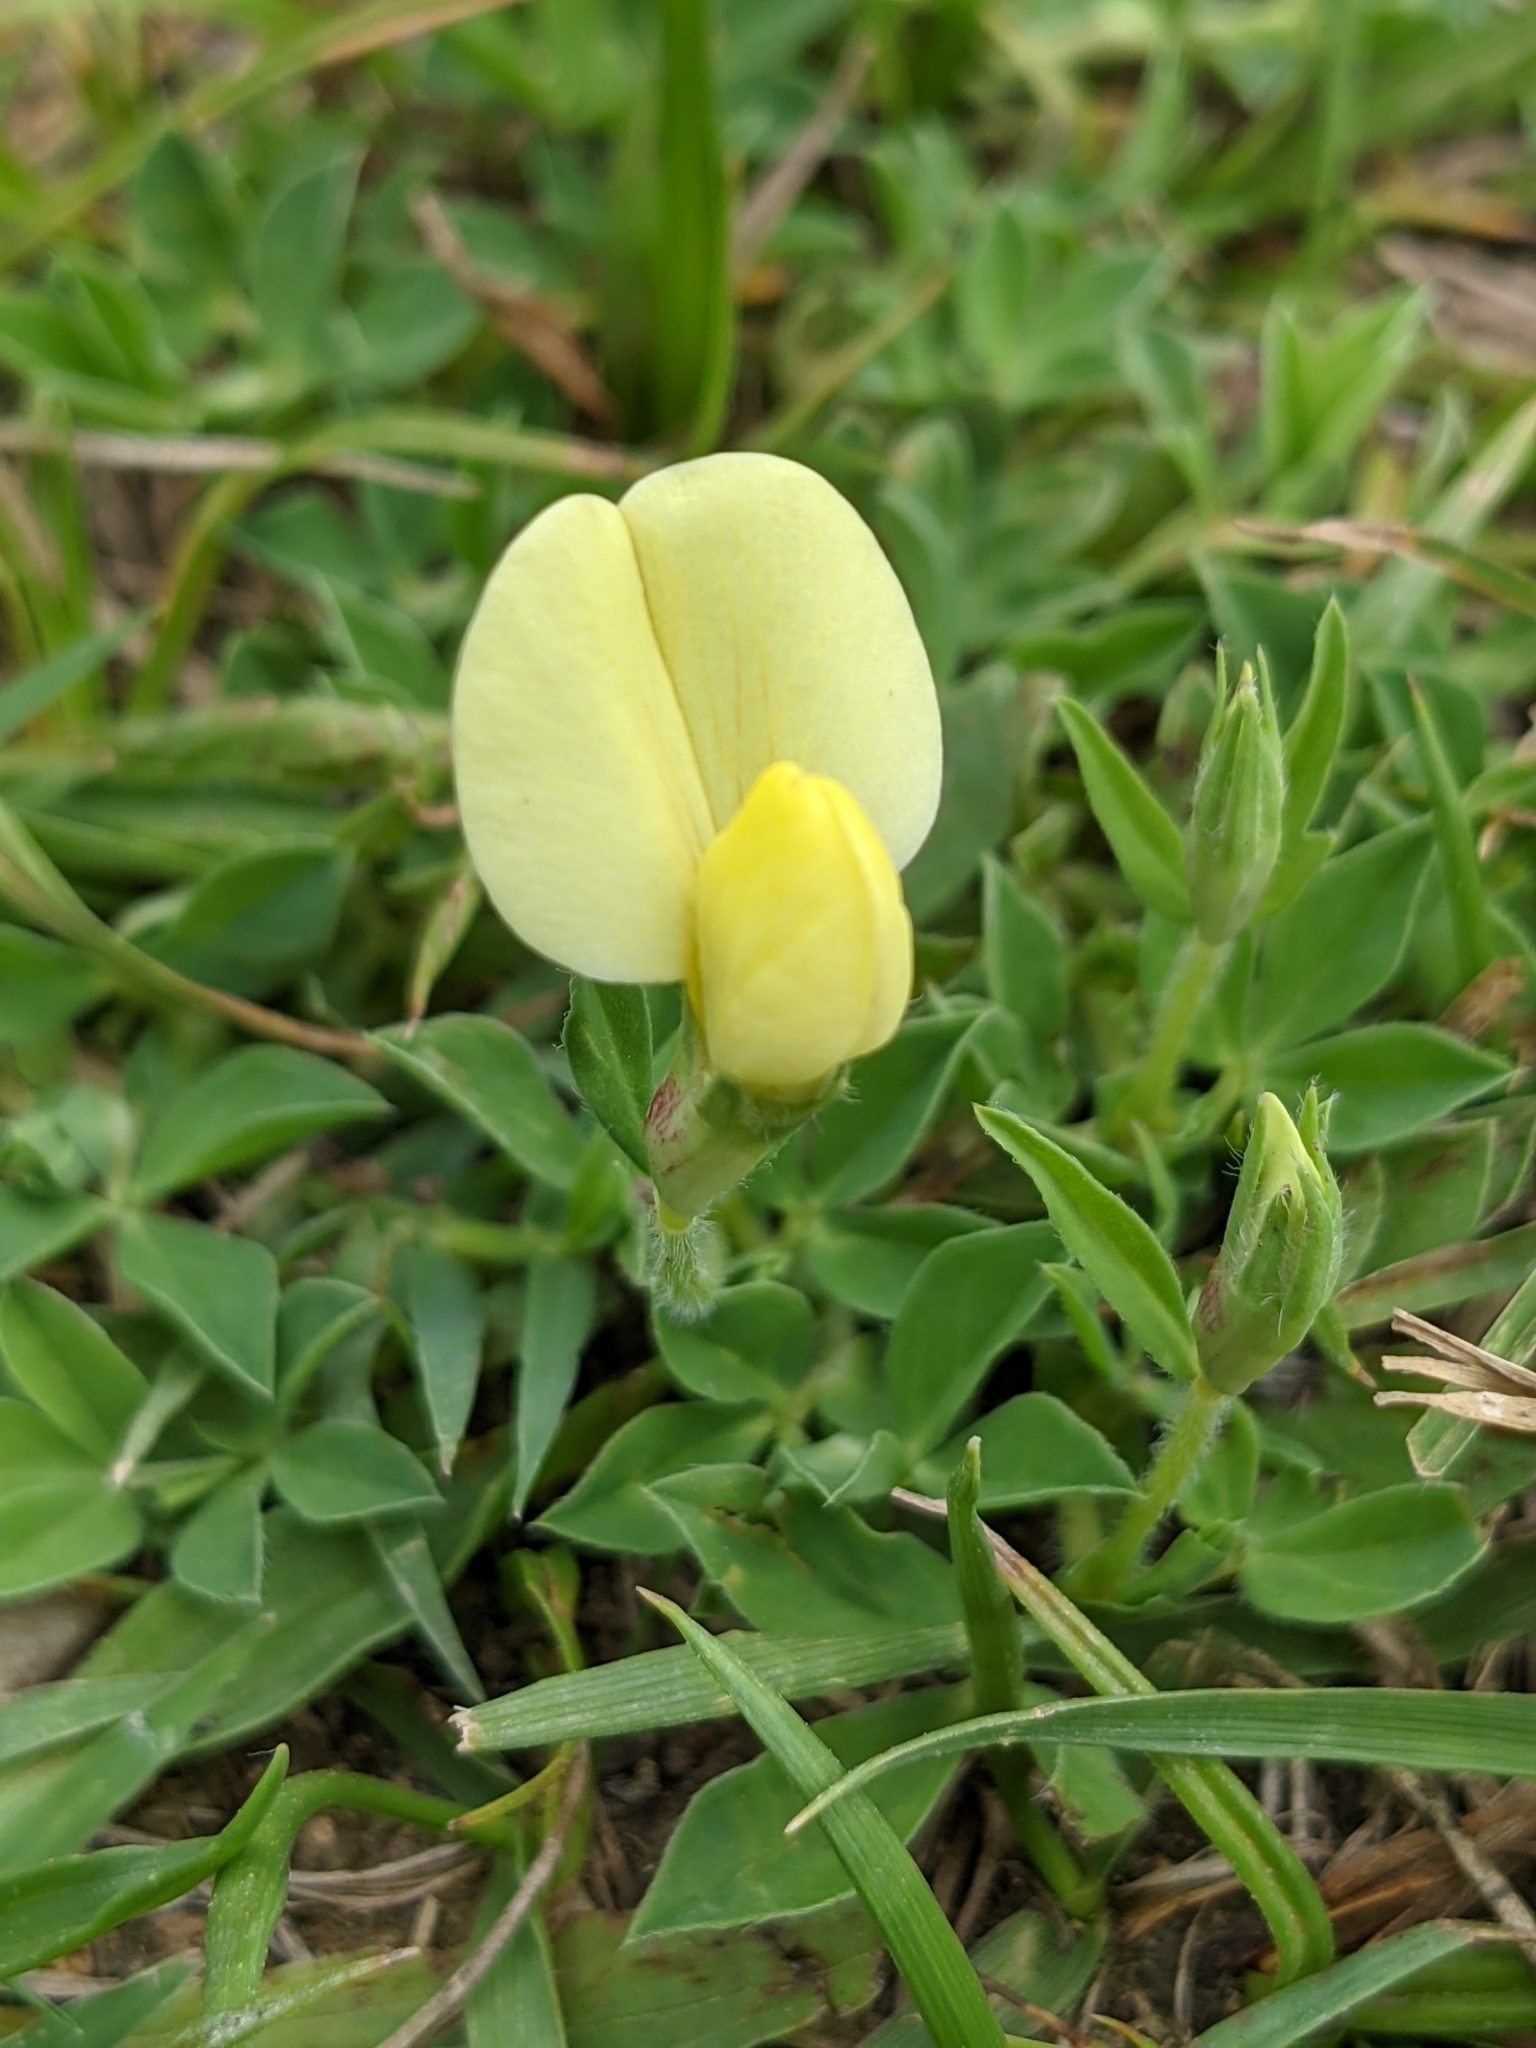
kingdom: Plantae
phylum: Tracheophyta
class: Magnoliopsida
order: Fabales
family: Fabaceae
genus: Lotus
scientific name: Lotus maritimus
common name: Dragon's-teeth
